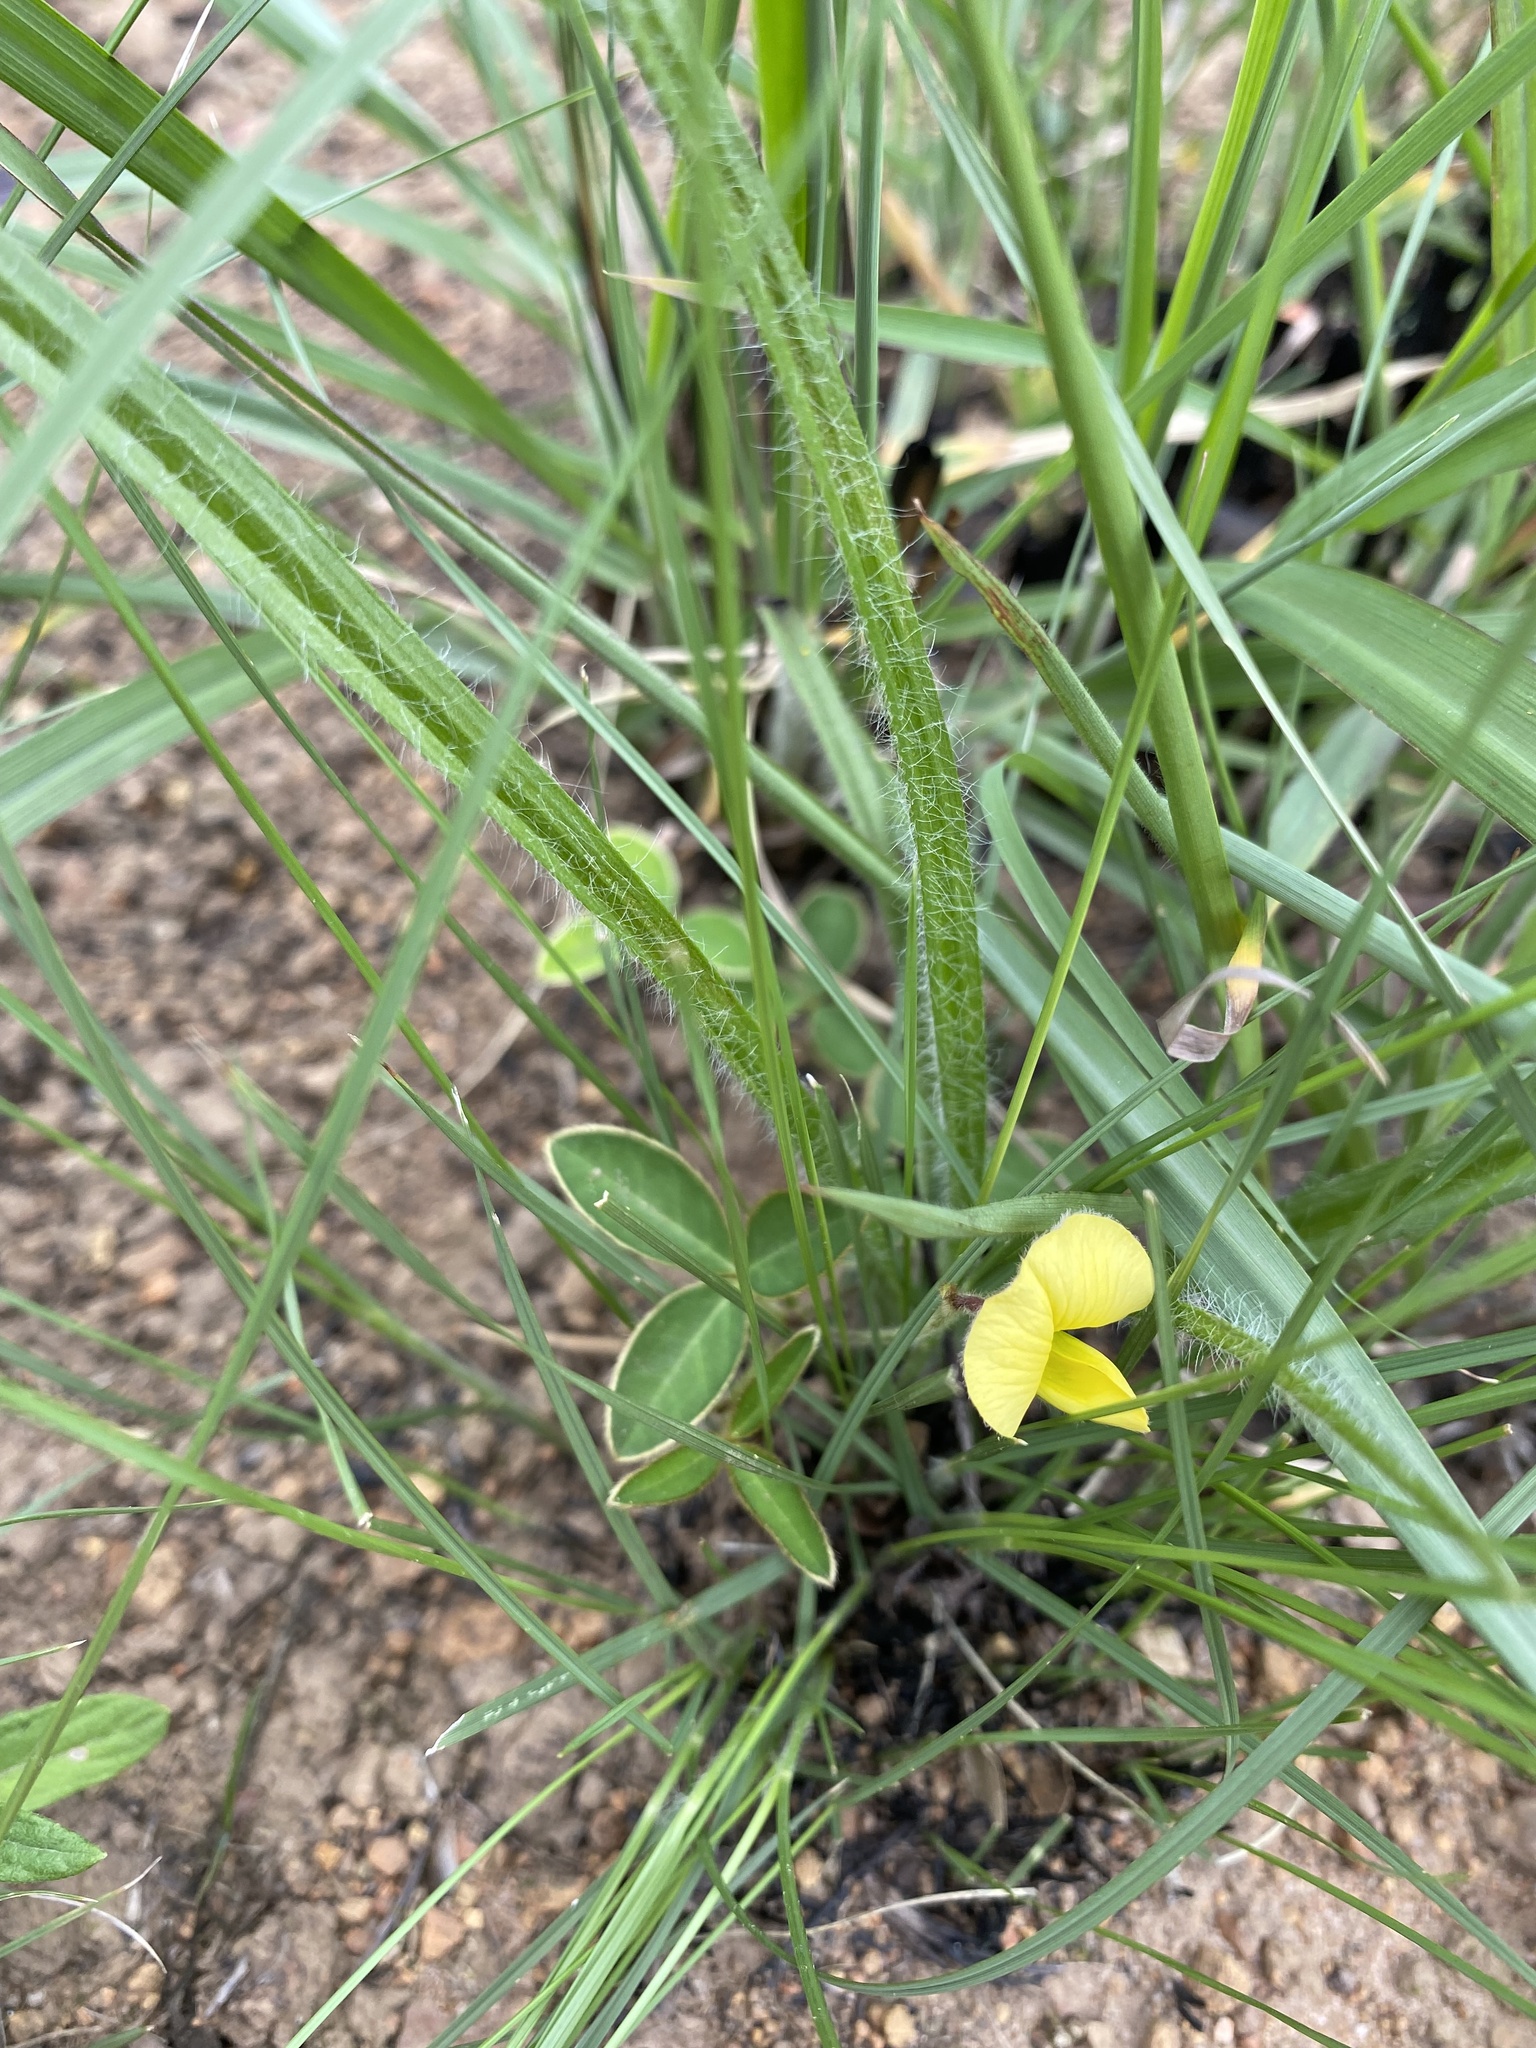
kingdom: Plantae
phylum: Tracheophyta
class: Liliopsida
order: Commelinales
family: Commelinaceae
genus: Commelina
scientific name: Commelina africana
